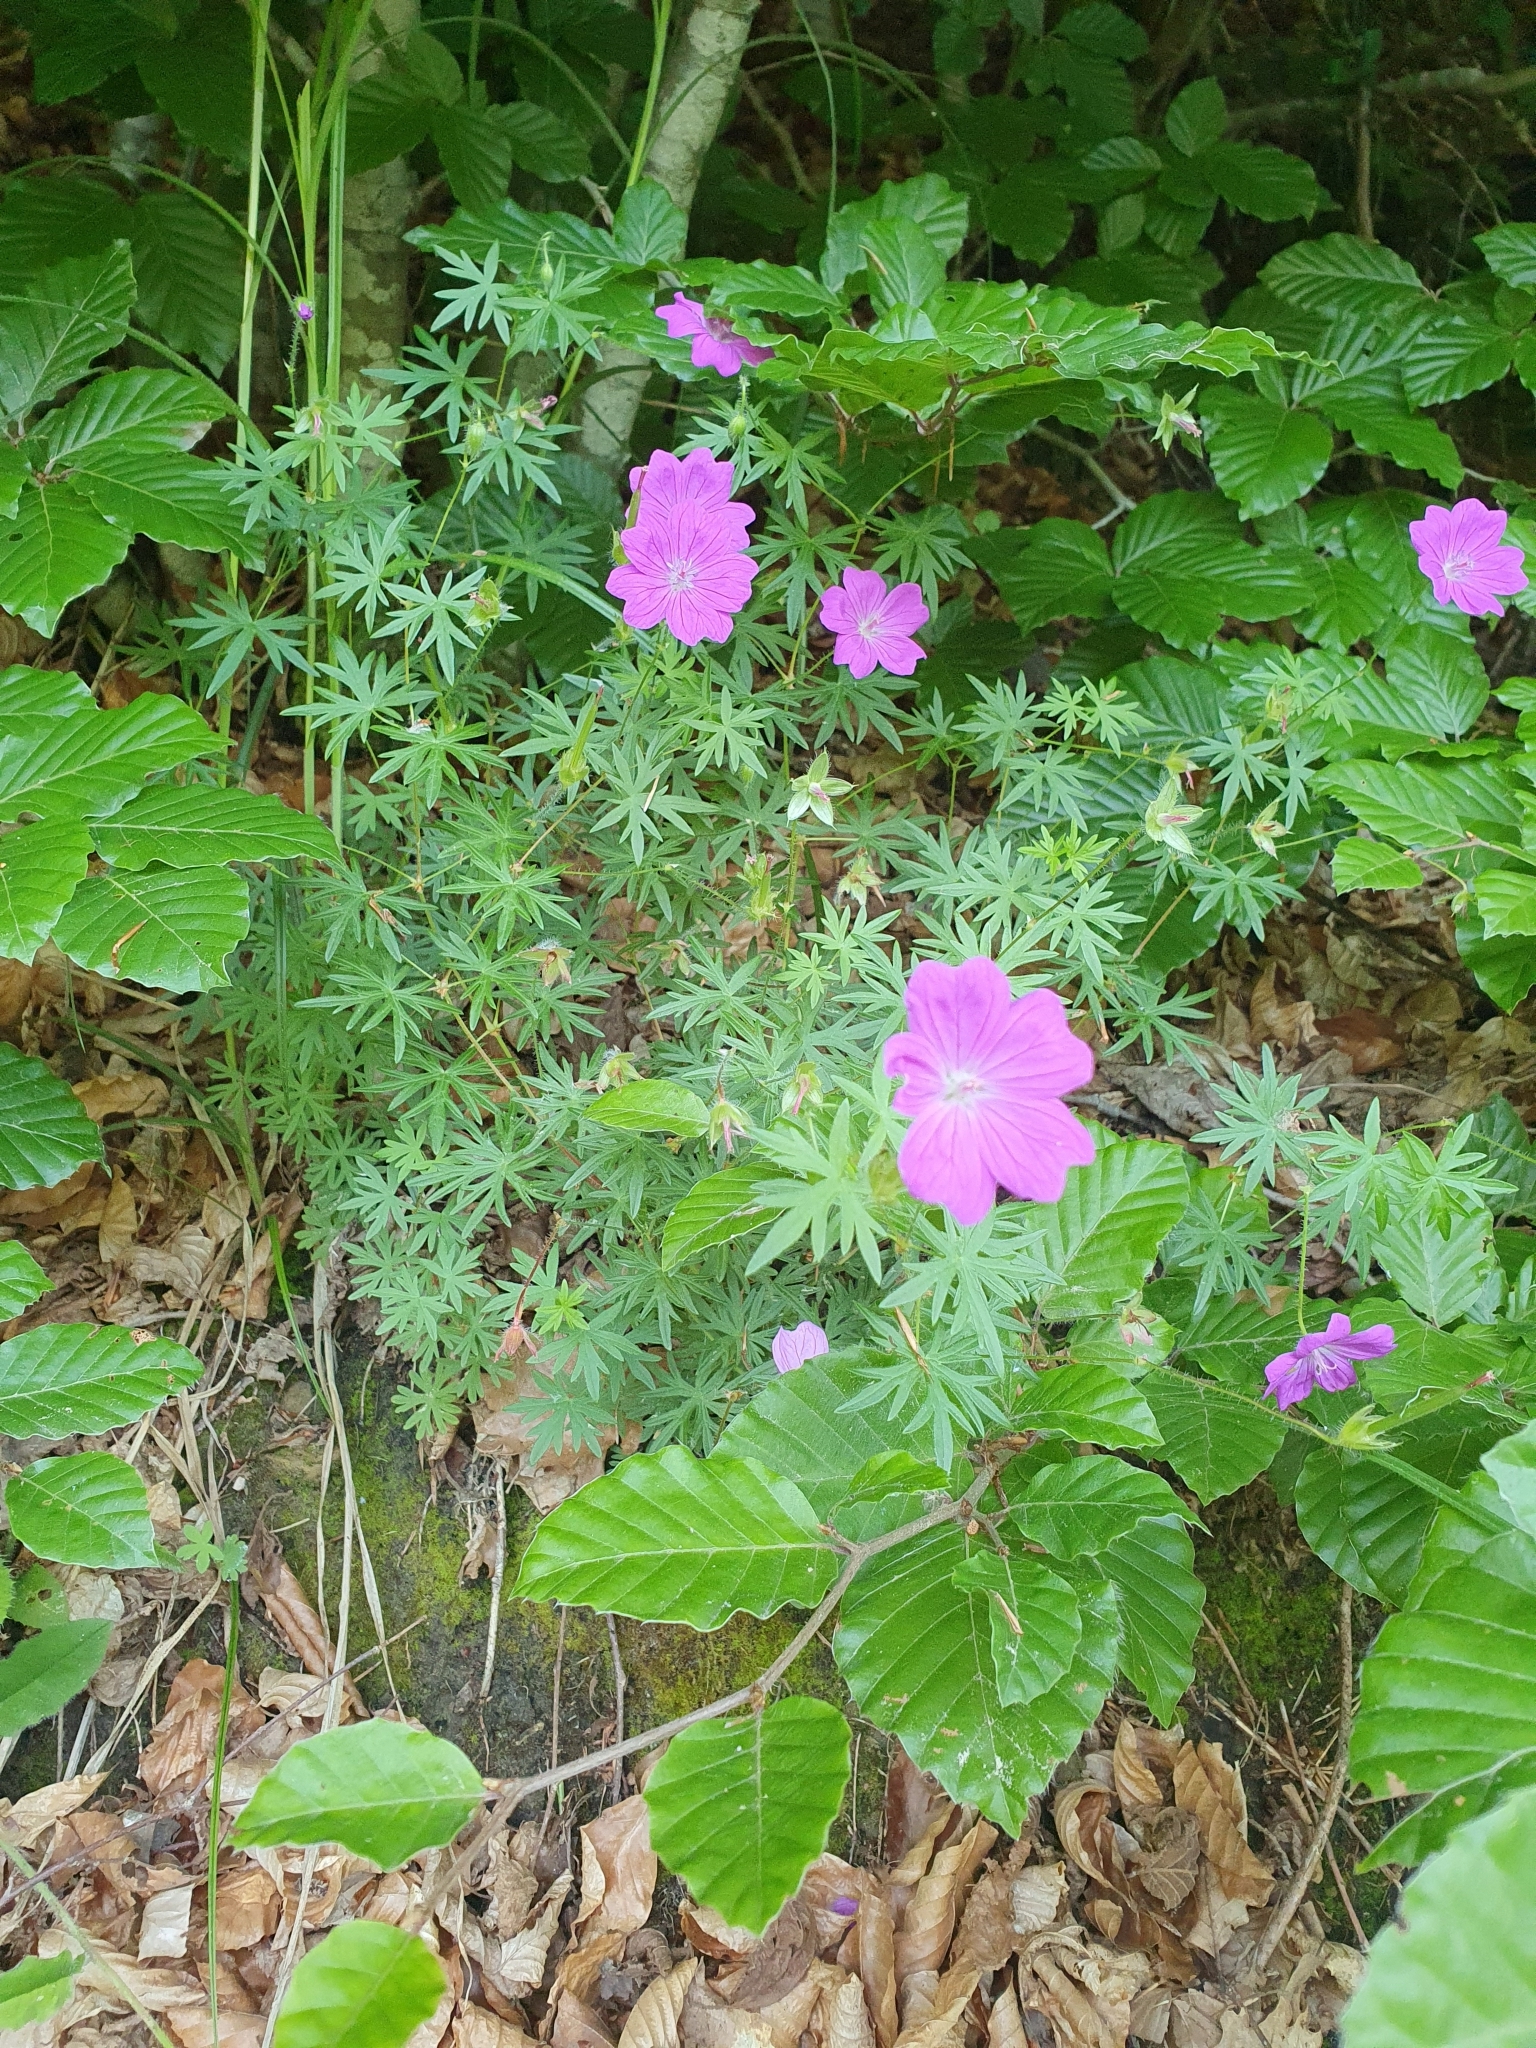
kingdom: Plantae
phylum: Tracheophyta
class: Magnoliopsida
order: Geraniales
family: Geraniaceae
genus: Geranium
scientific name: Geranium sanguineum
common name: Bloody crane's-bill
